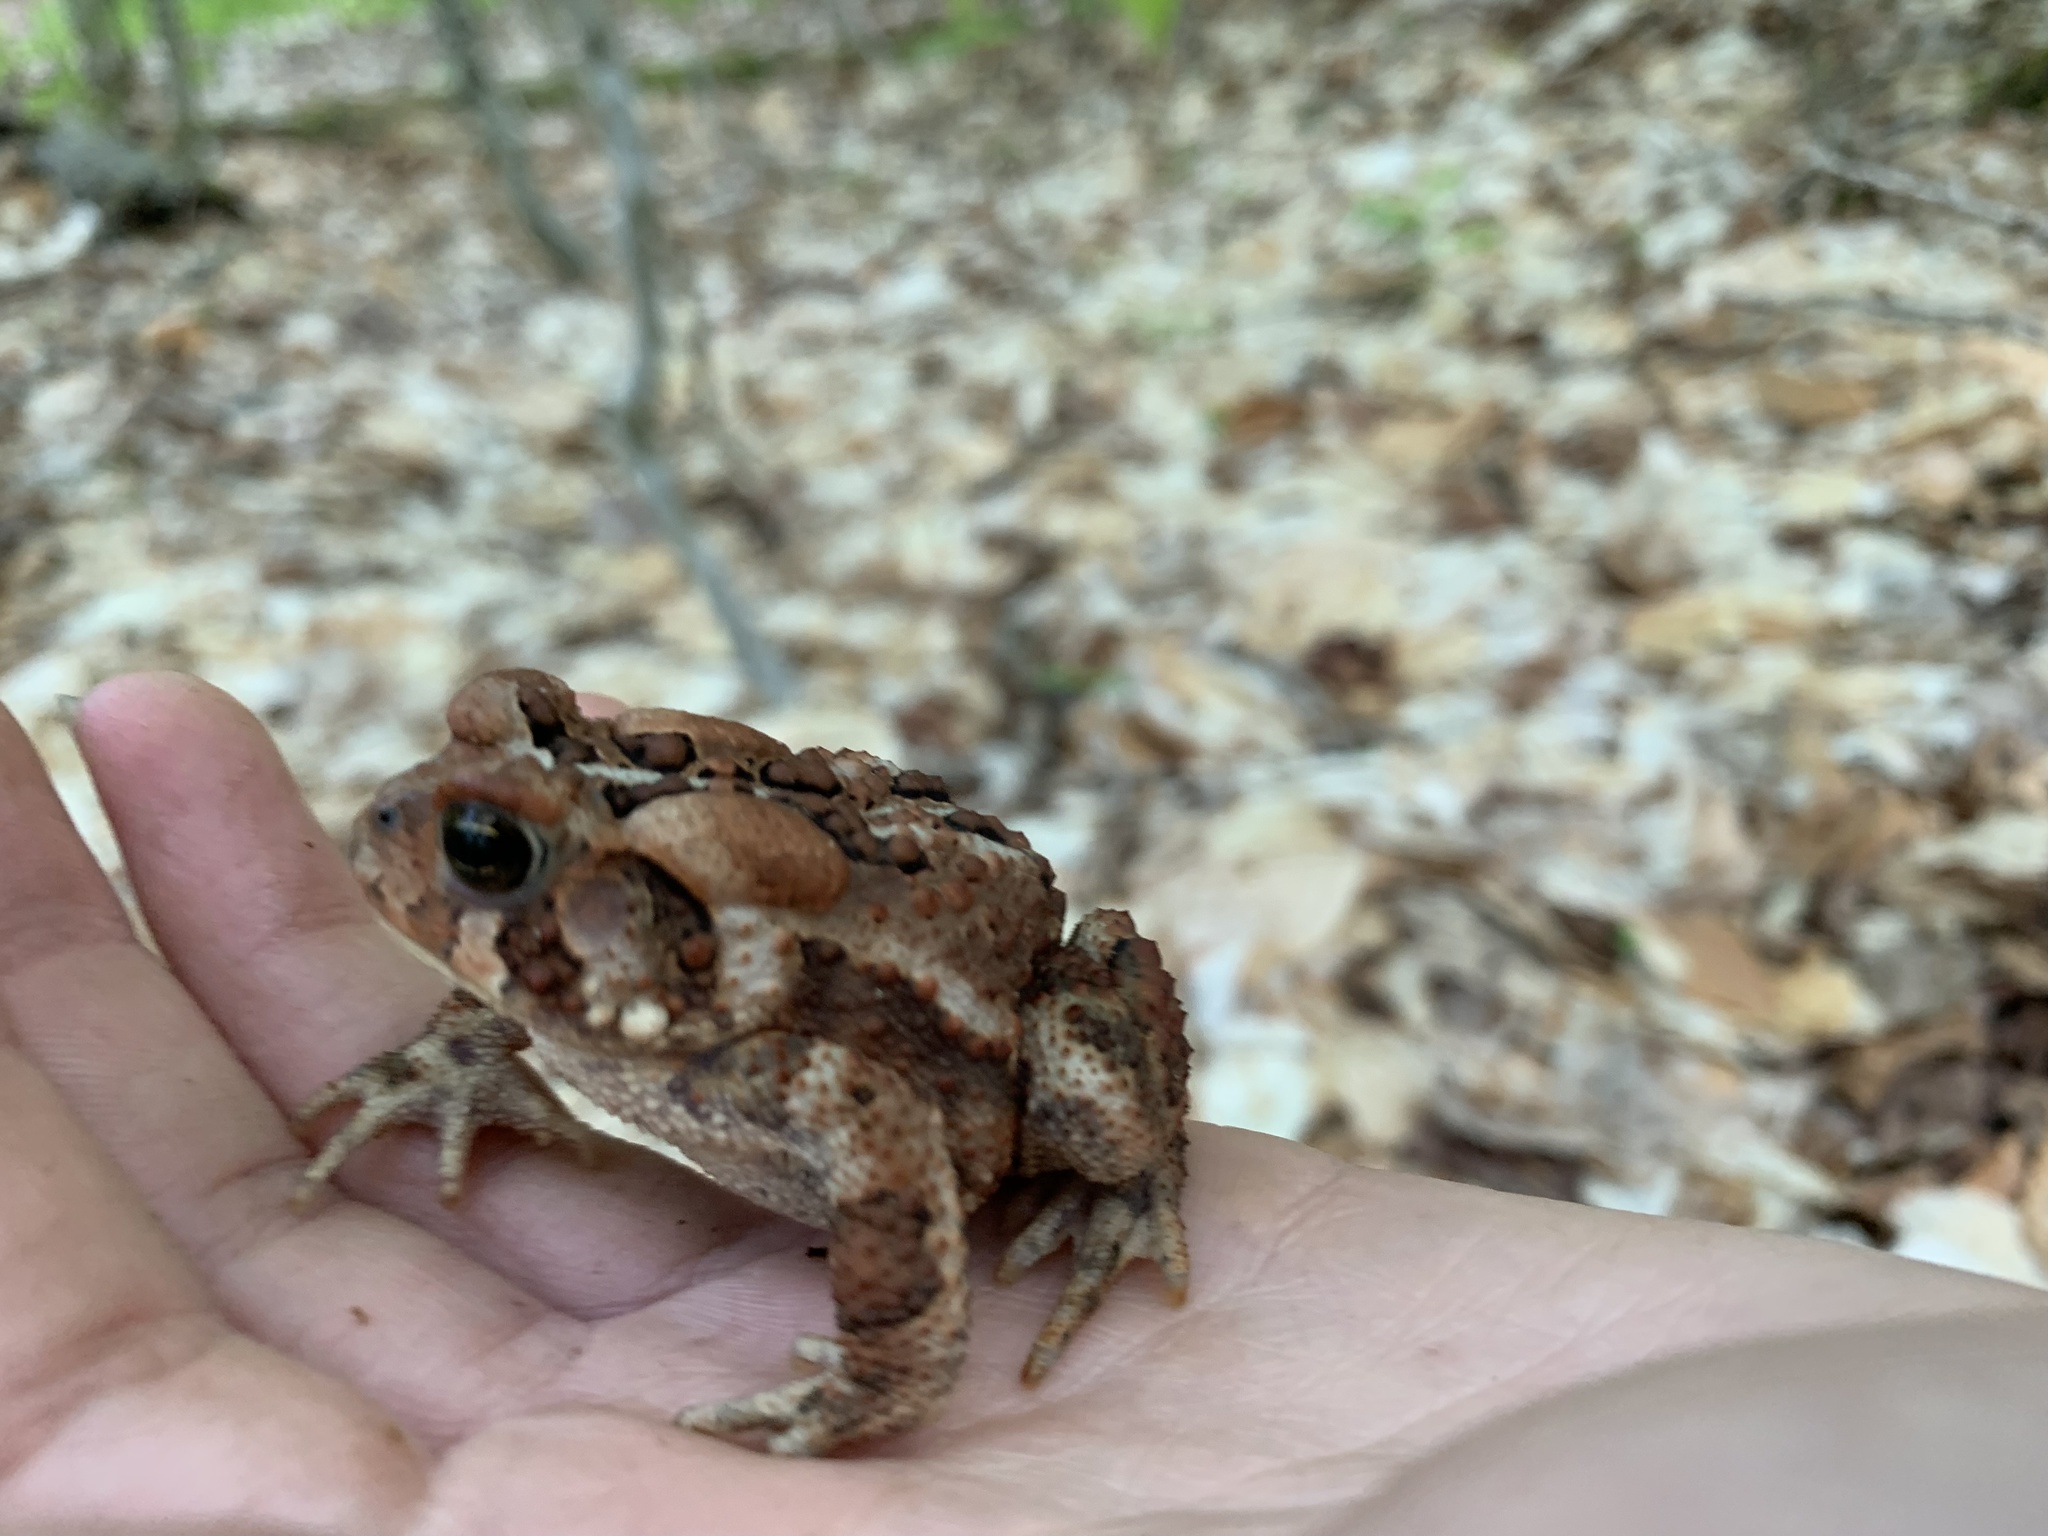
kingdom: Animalia
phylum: Chordata
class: Amphibia
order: Anura
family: Bufonidae
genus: Anaxyrus
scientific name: Anaxyrus americanus
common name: American toad
